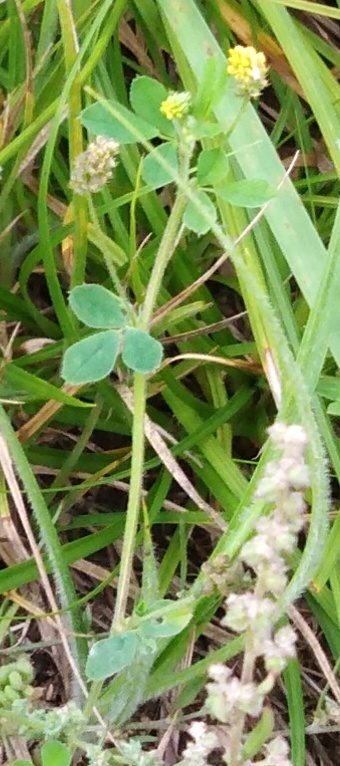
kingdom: Plantae
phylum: Tracheophyta
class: Magnoliopsida
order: Fabales
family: Fabaceae
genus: Medicago
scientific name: Medicago lupulina
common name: Black medick
